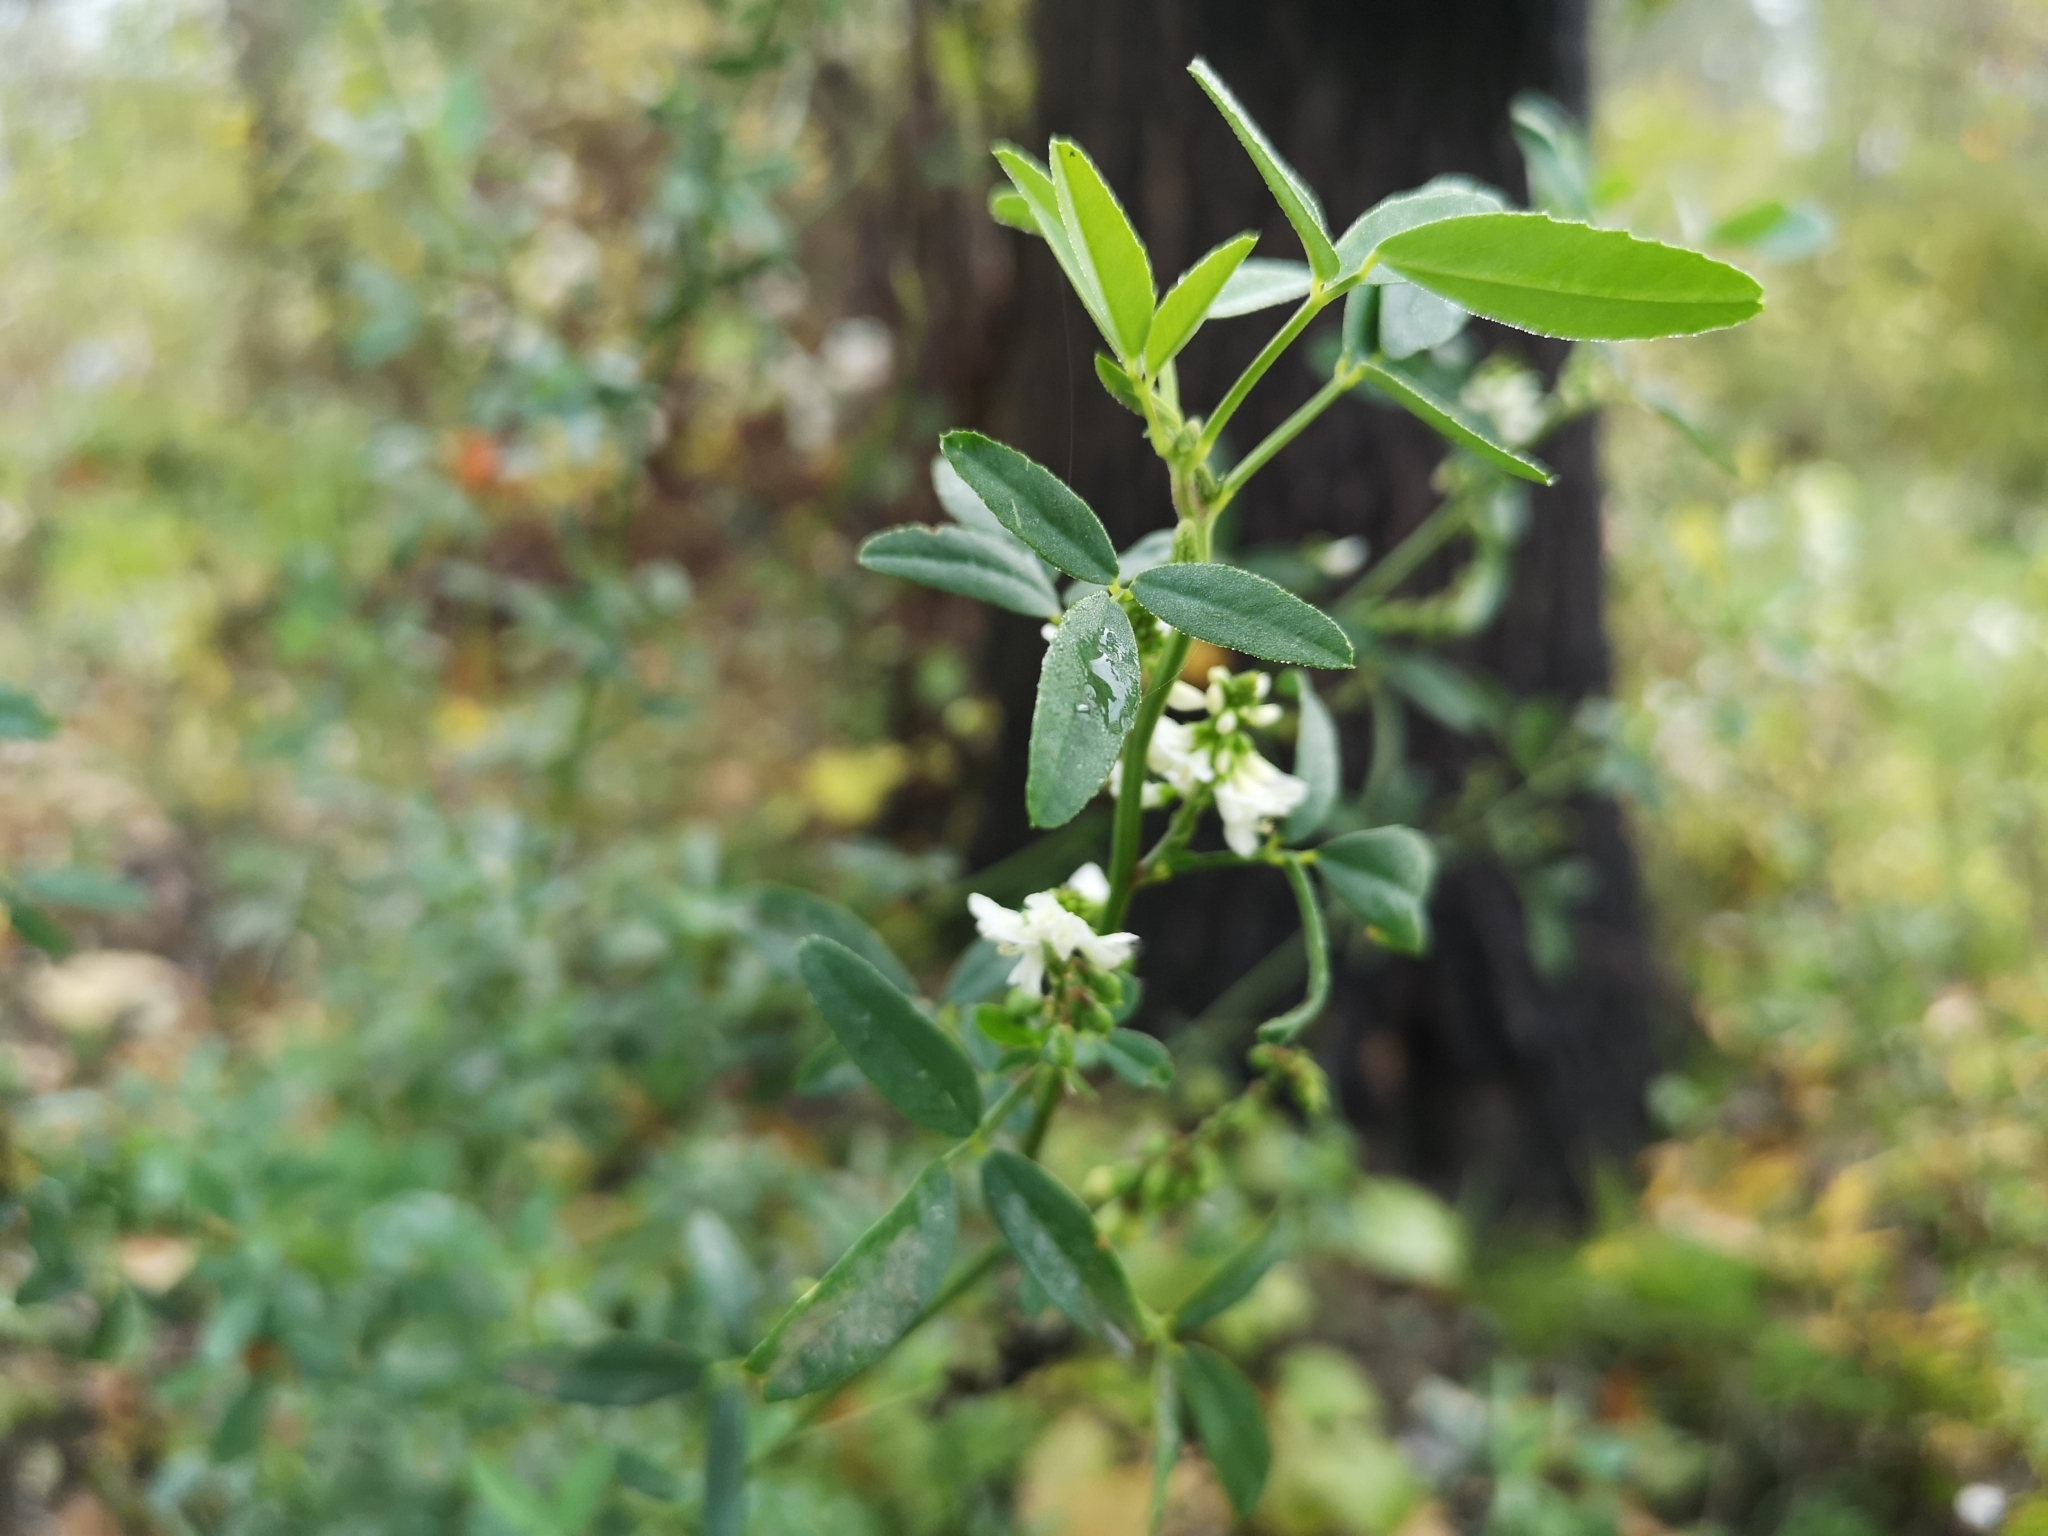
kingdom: Plantae
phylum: Tracheophyta
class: Magnoliopsida
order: Fabales
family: Fabaceae
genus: Melilotus
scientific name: Melilotus albus
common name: White melilot
